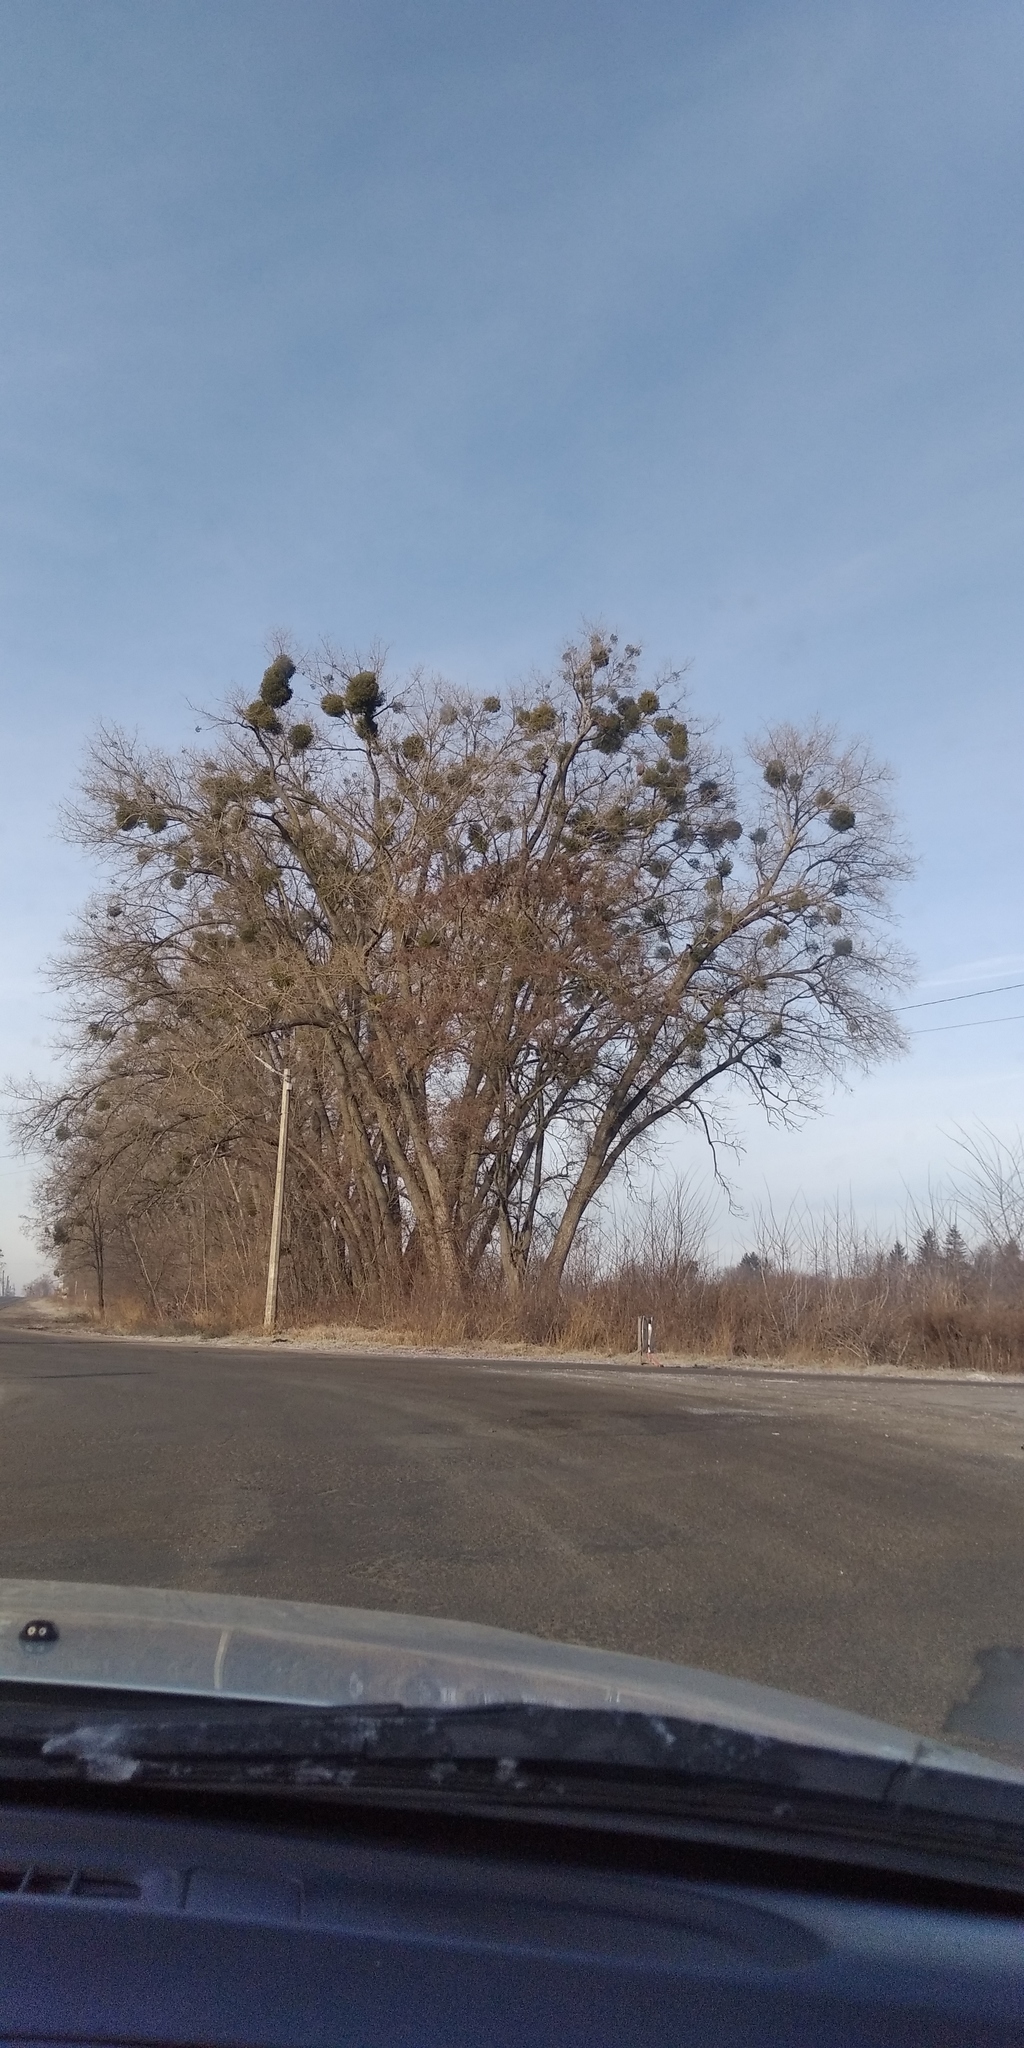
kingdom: Plantae
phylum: Tracheophyta
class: Magnoliopsida
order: Santalales
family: Viscaceae
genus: Viscum
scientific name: Viscum album
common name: Mistletoe
